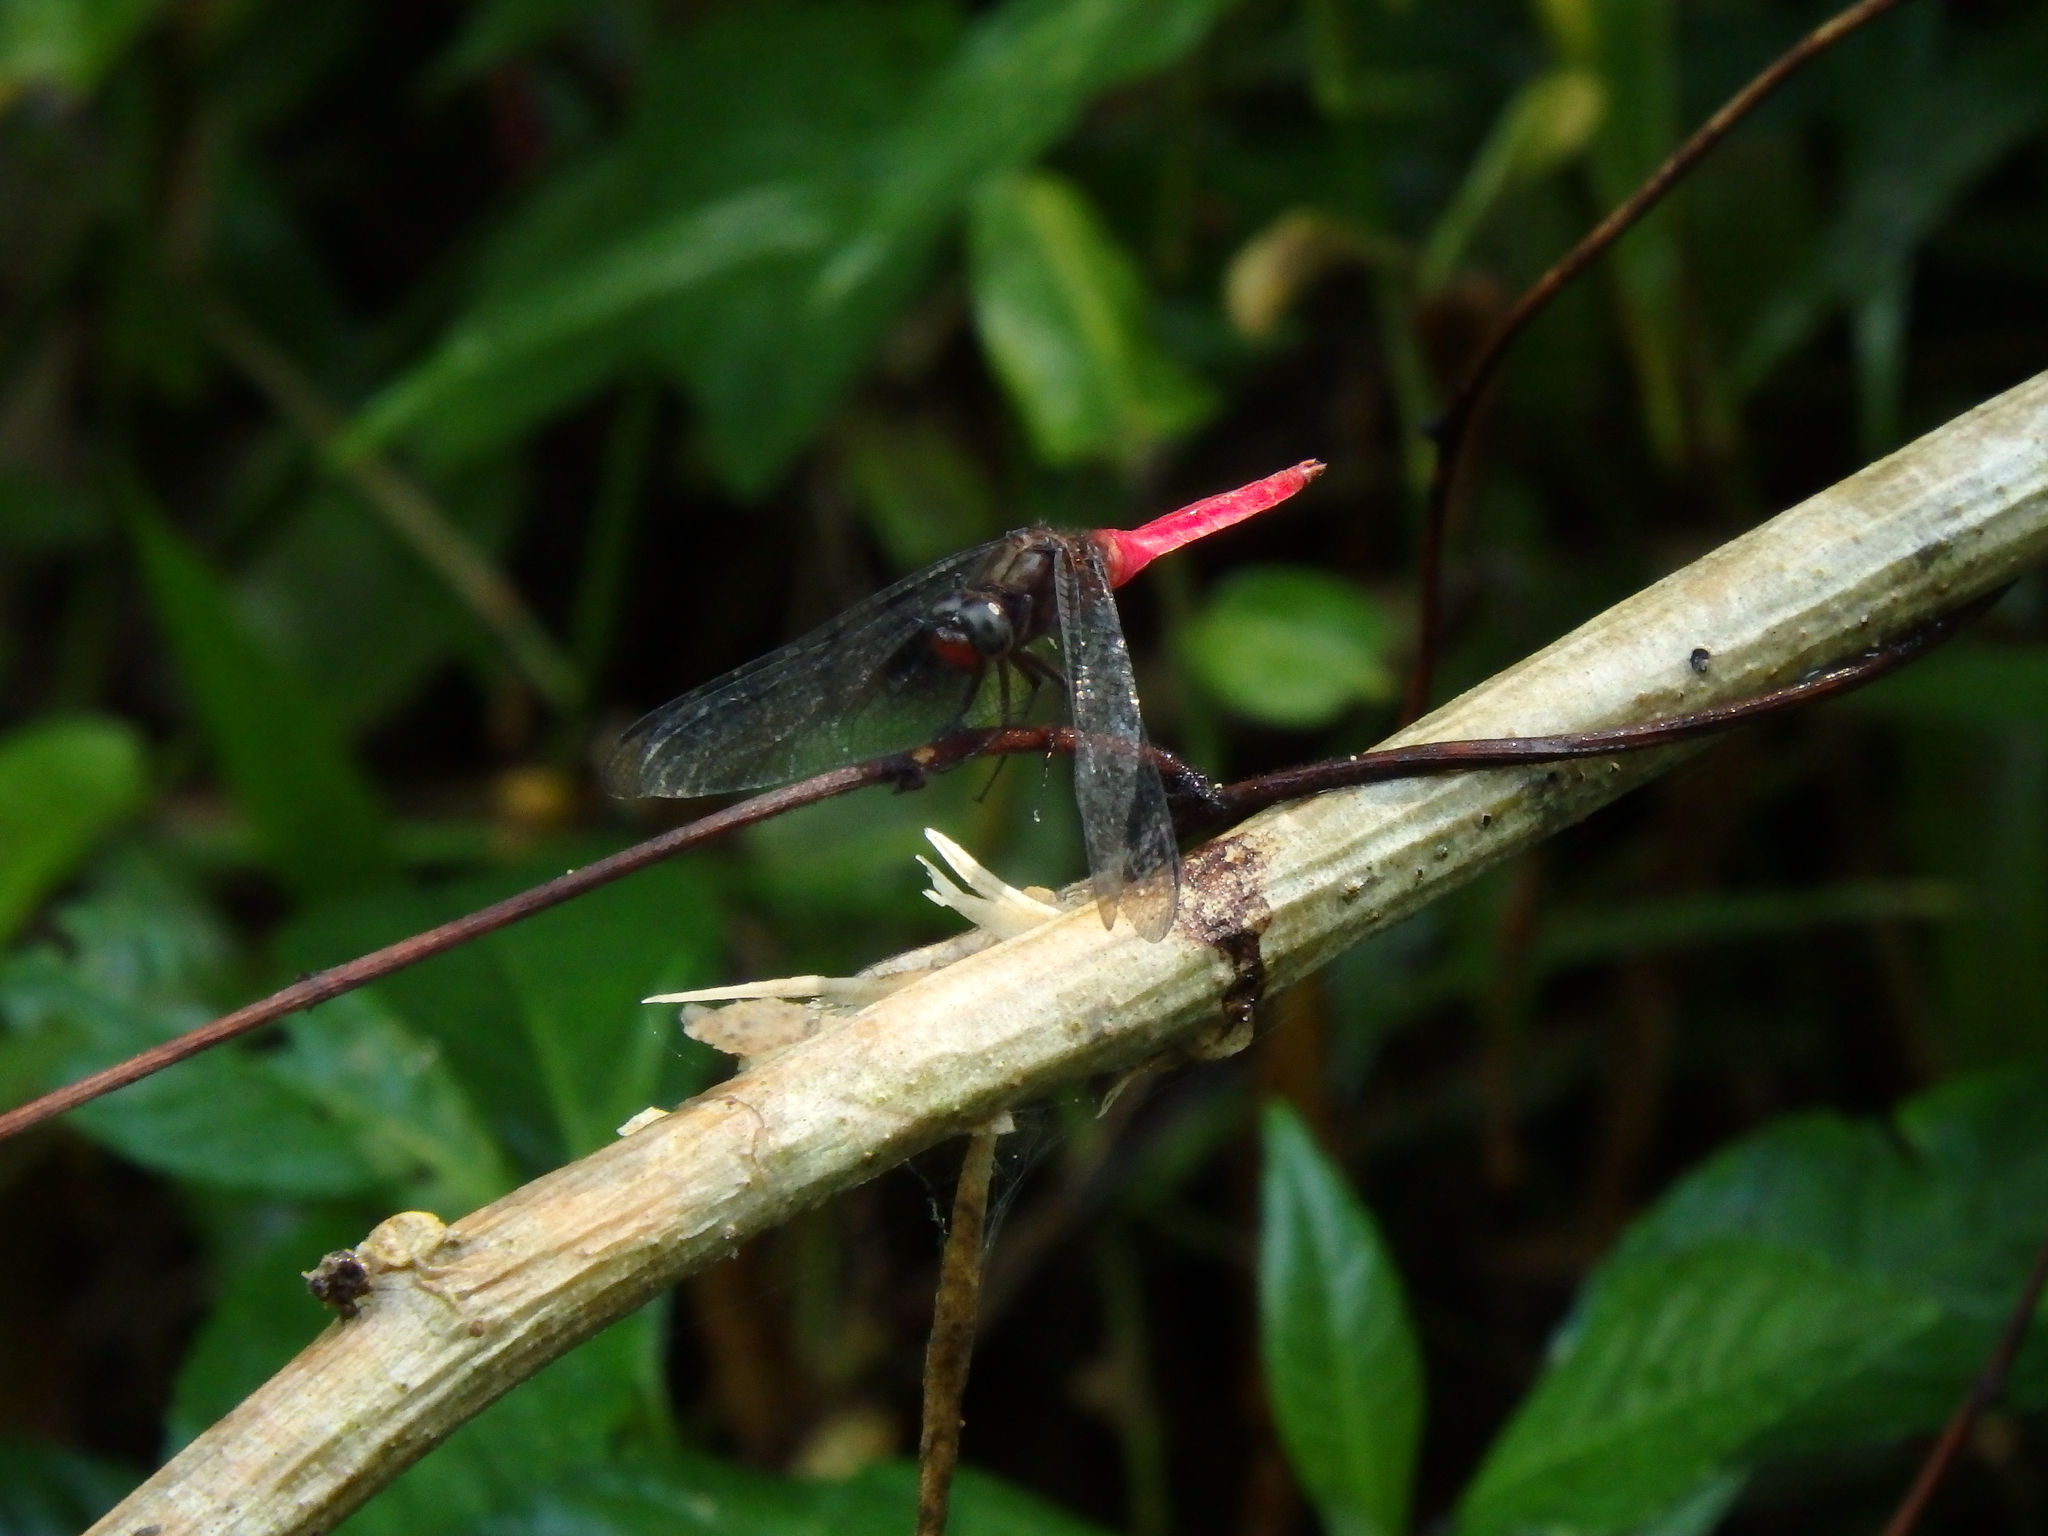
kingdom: Animalia
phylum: Arthropoda
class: Insecta
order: Odonata
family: Libellulidae
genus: Orthetrum
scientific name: Orthetrum chrysis
